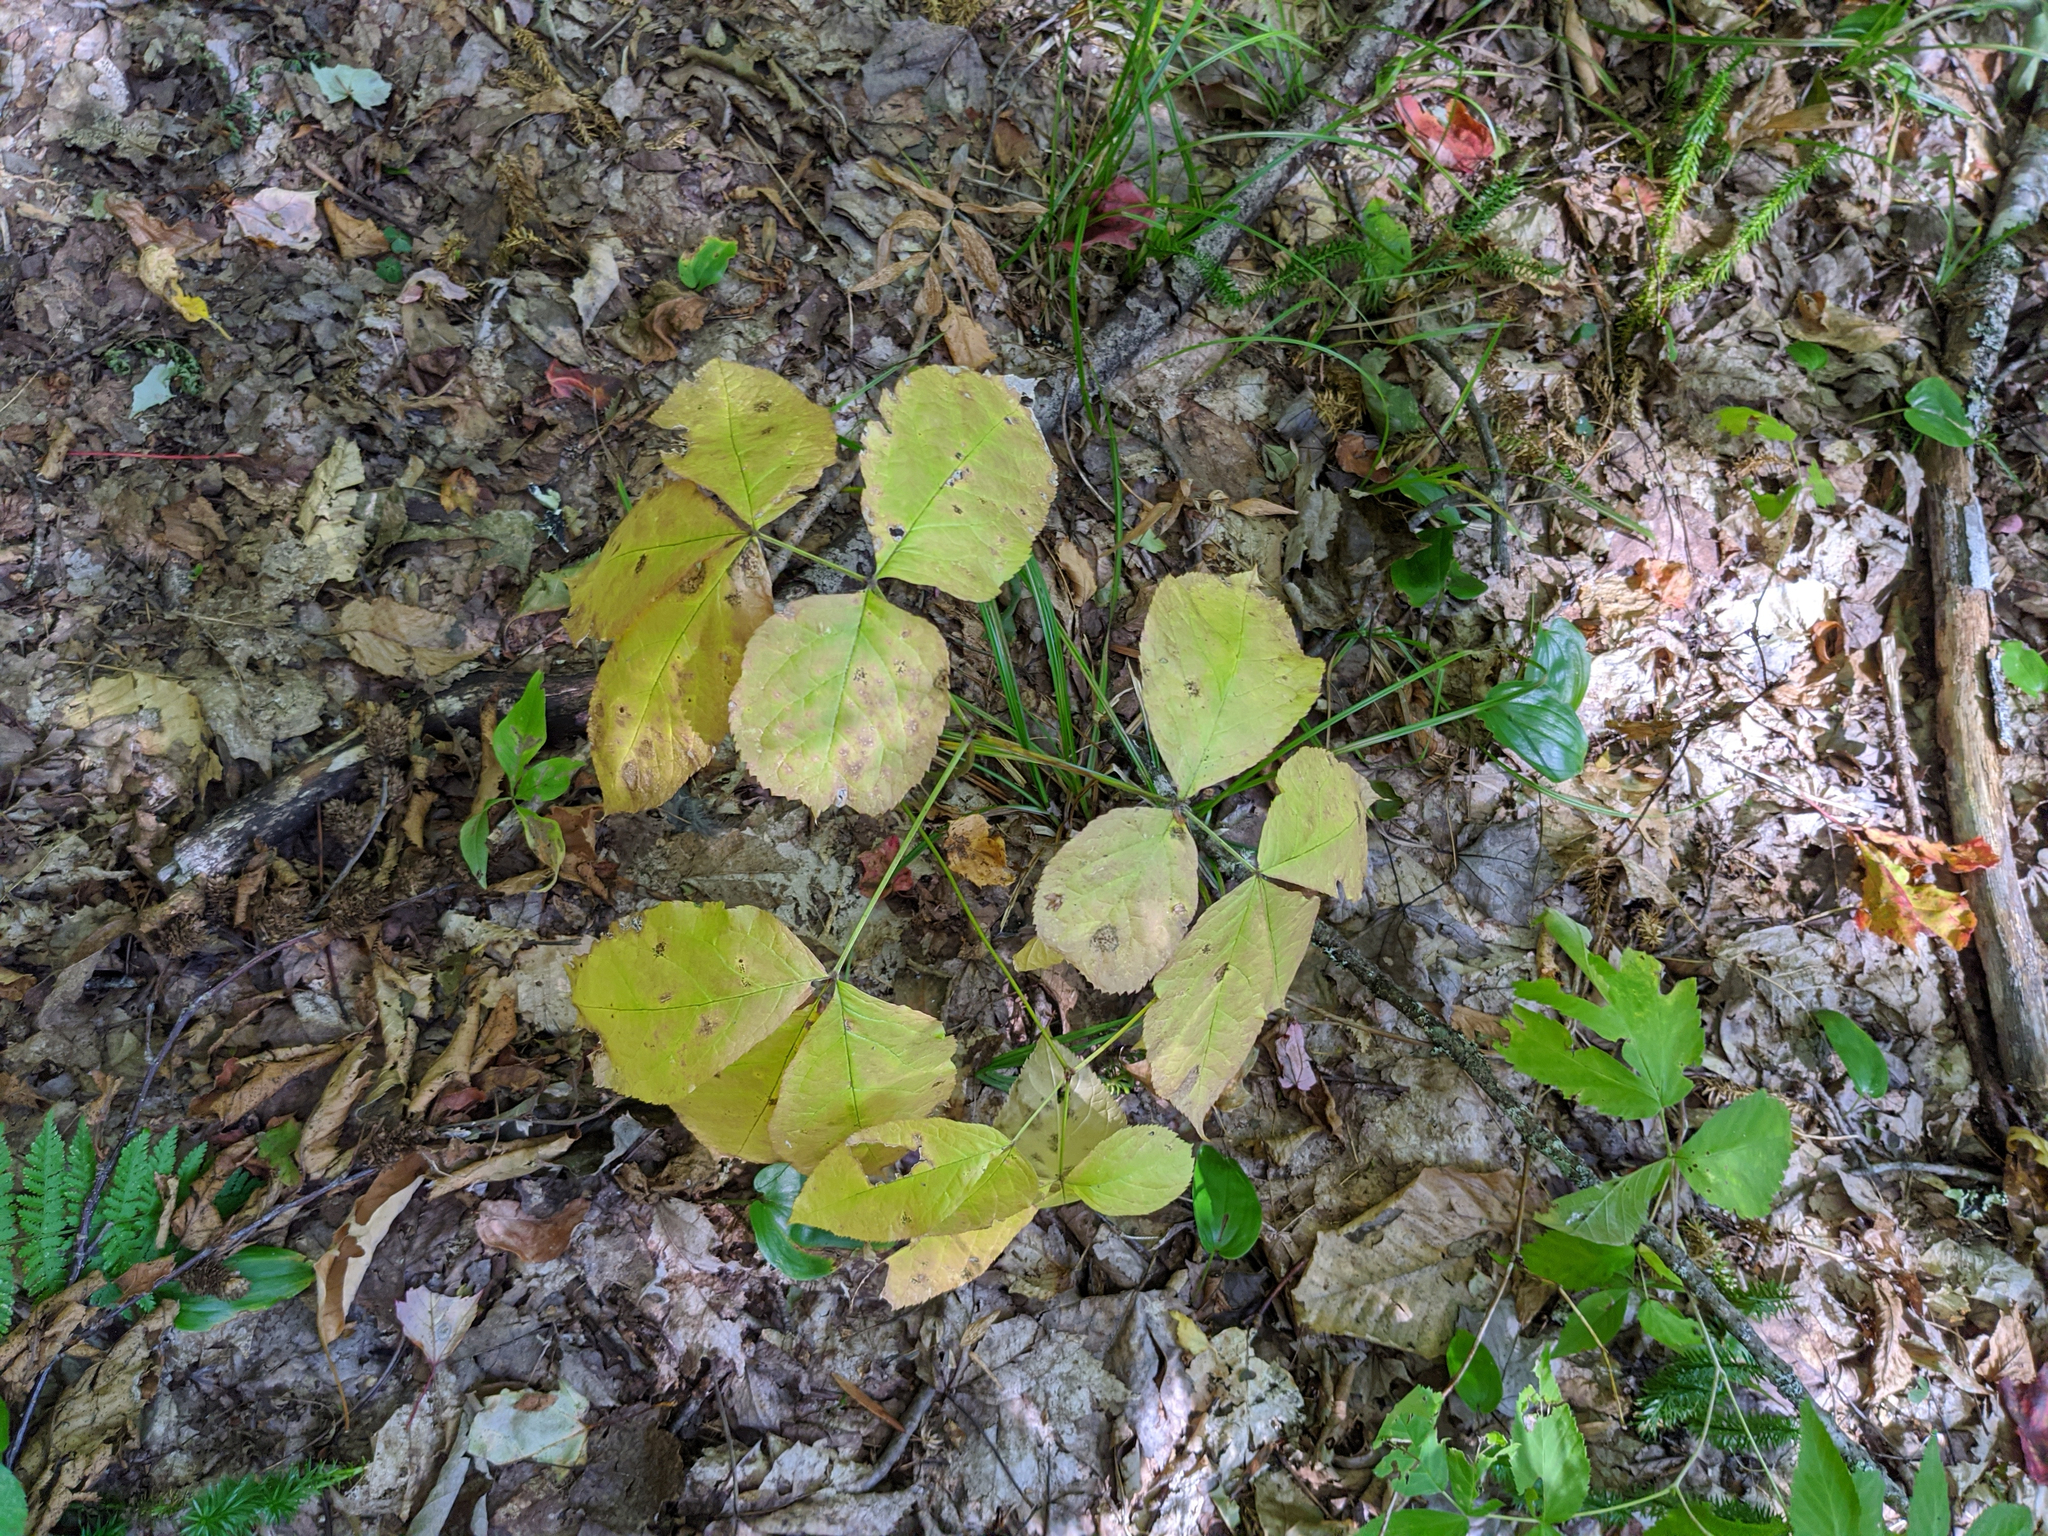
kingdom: Plantae
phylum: Tracheophyta
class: Magnoliopsida
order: Apiales
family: Araliaceae
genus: Aralia
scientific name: Aralia nudicaulis
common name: Wild sarsaparilla
